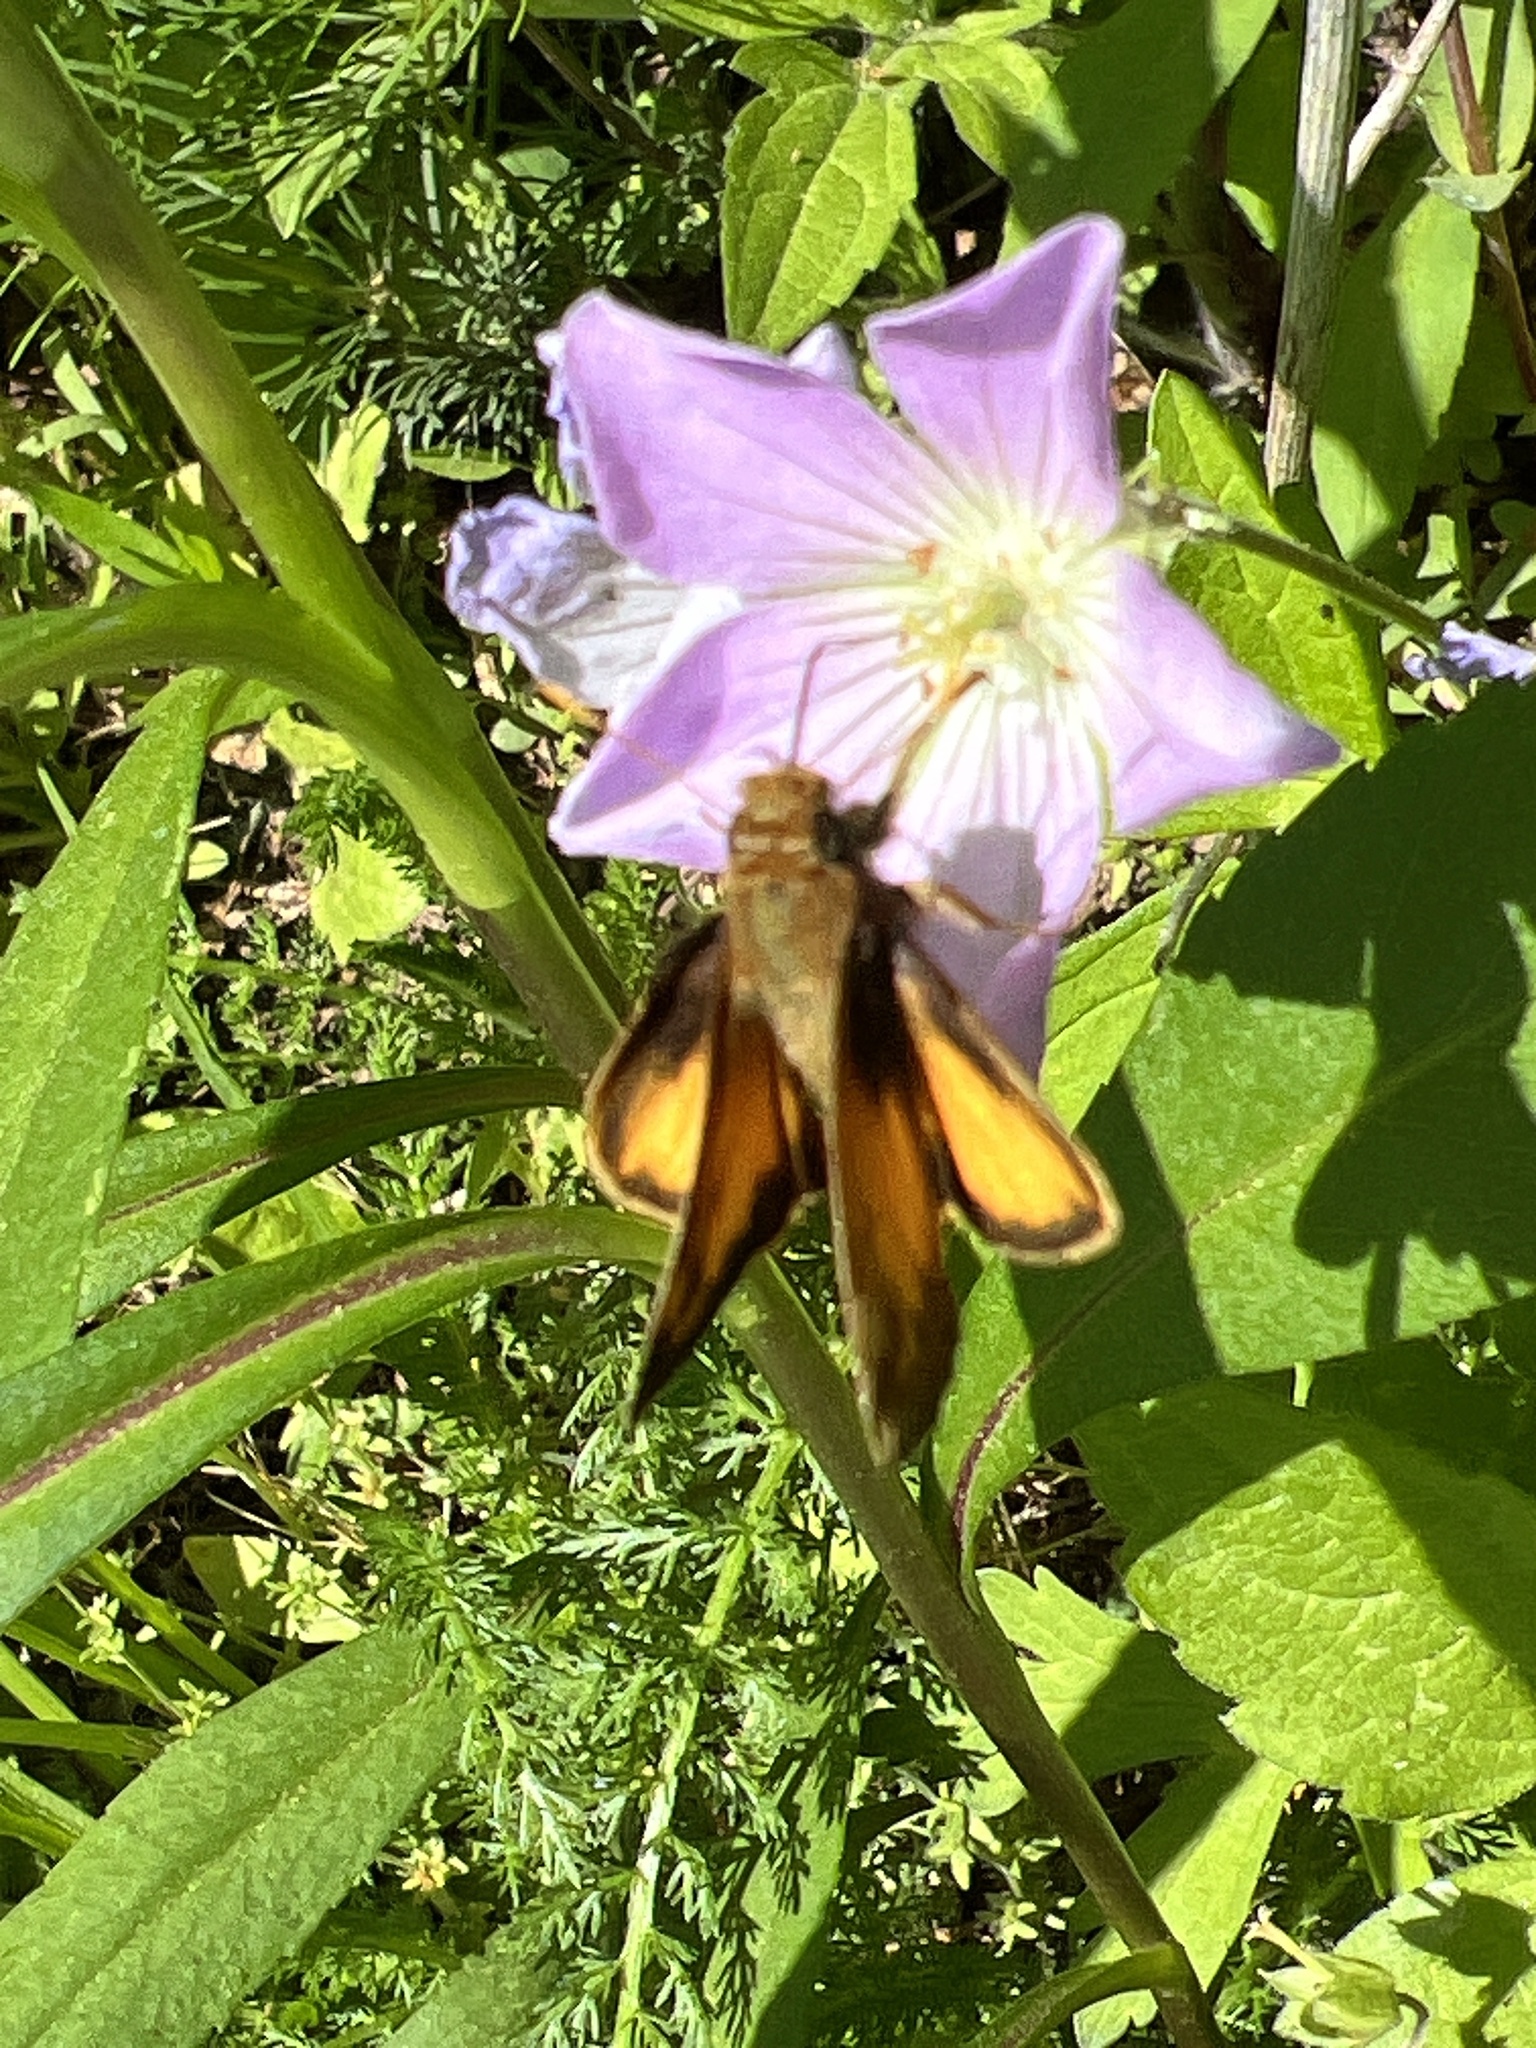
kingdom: Animalia
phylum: Arthropoda
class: Insecta
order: Lepidoptera
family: Hesperiidae
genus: Lon
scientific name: Lon zabulon
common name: Zabulon skipper
